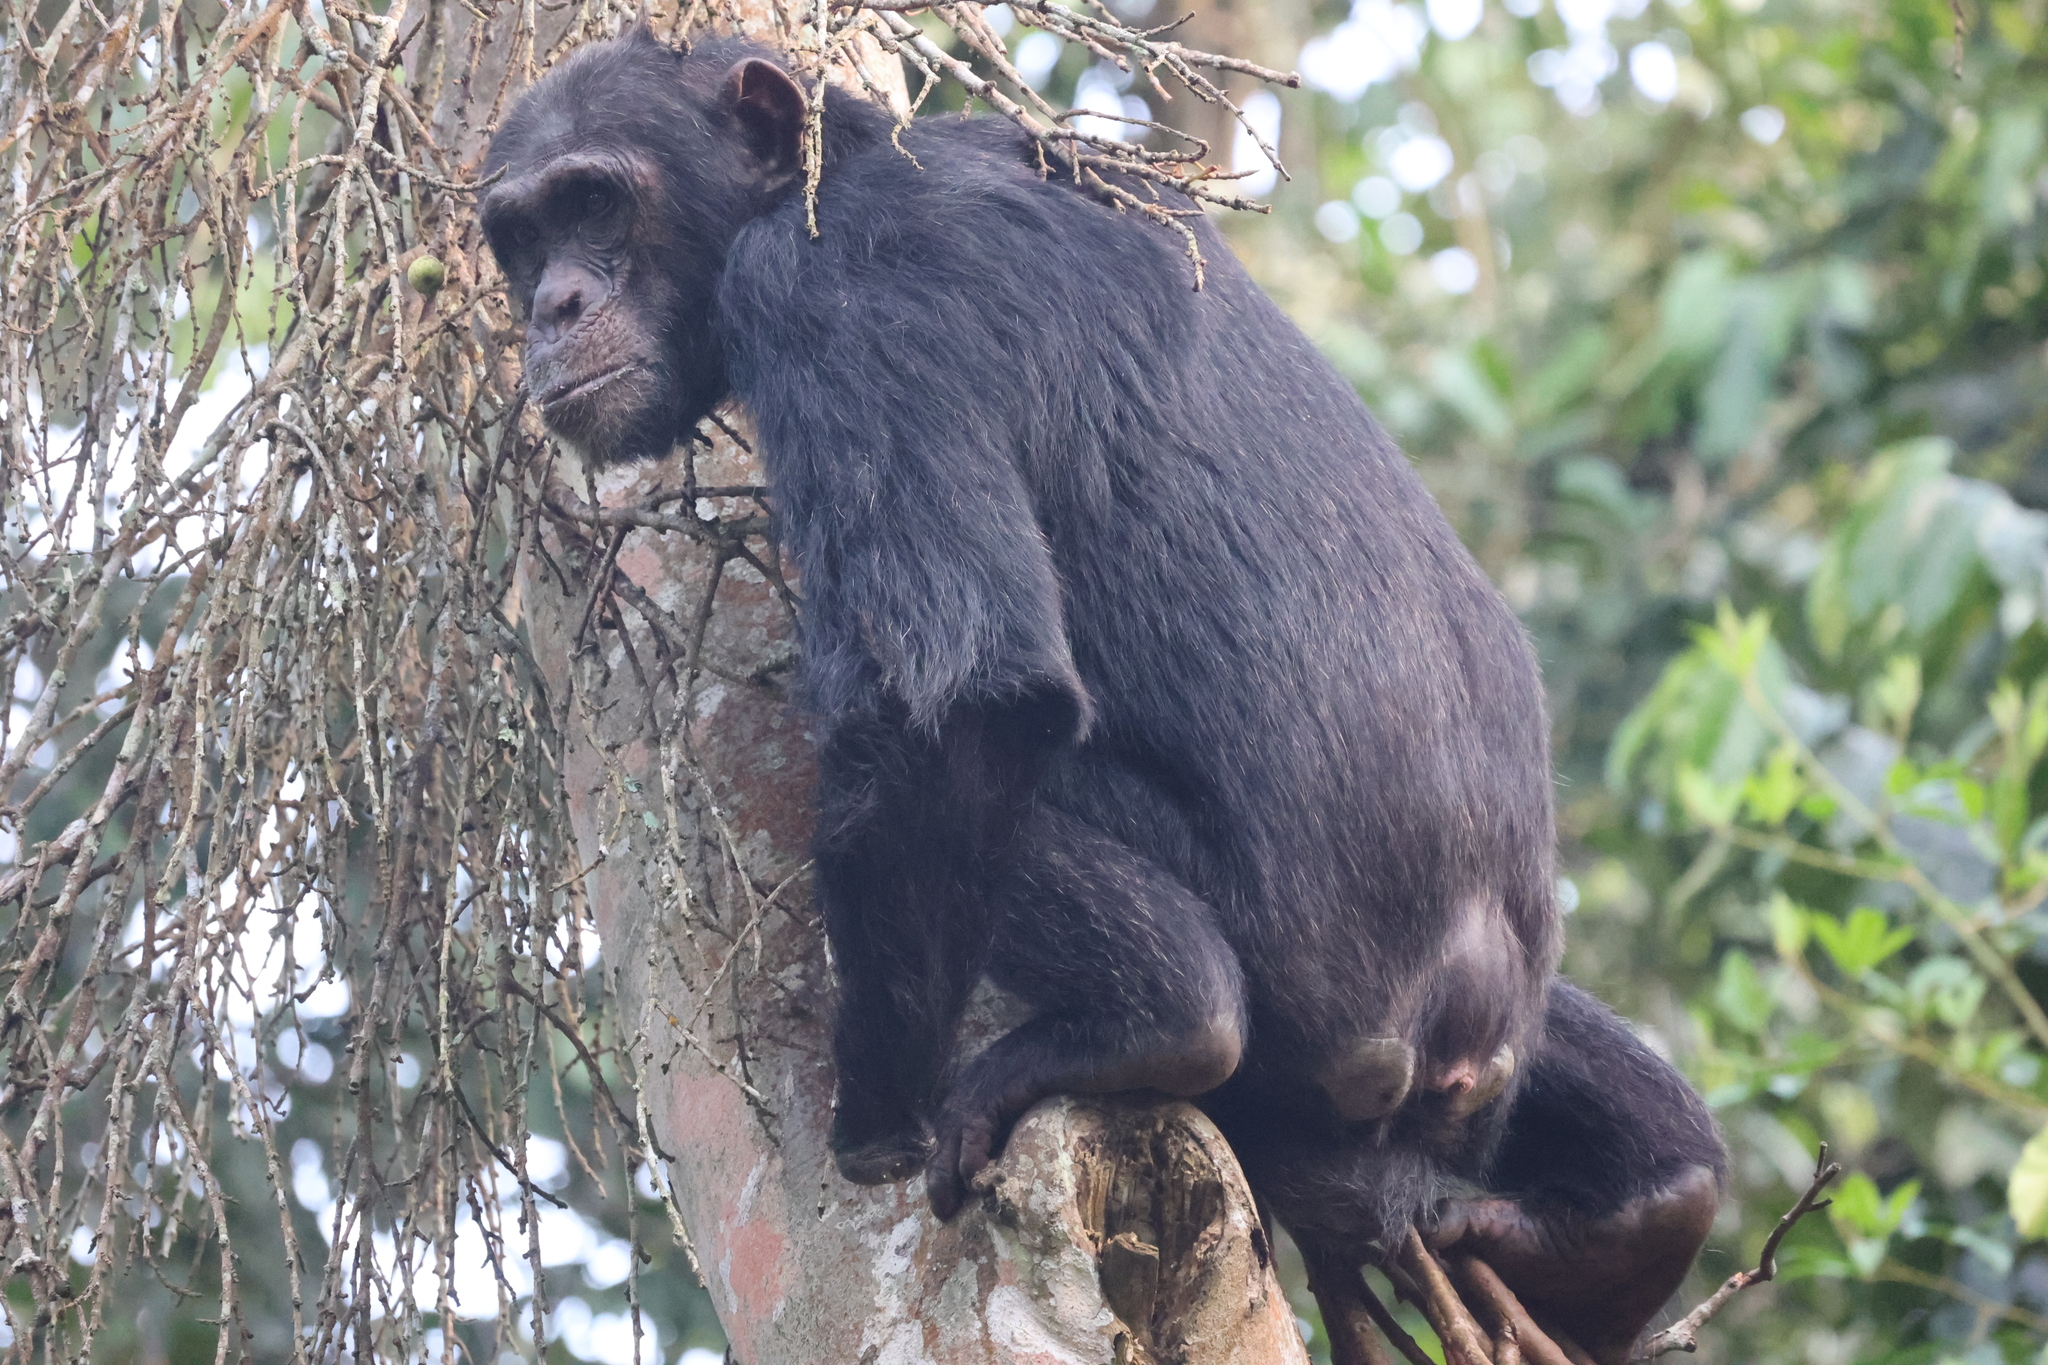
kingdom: Animalia
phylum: Chordata
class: Mammalia
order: Primates
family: Hominidae
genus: Pan
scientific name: Pan troglodytes
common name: Chimpanzee
